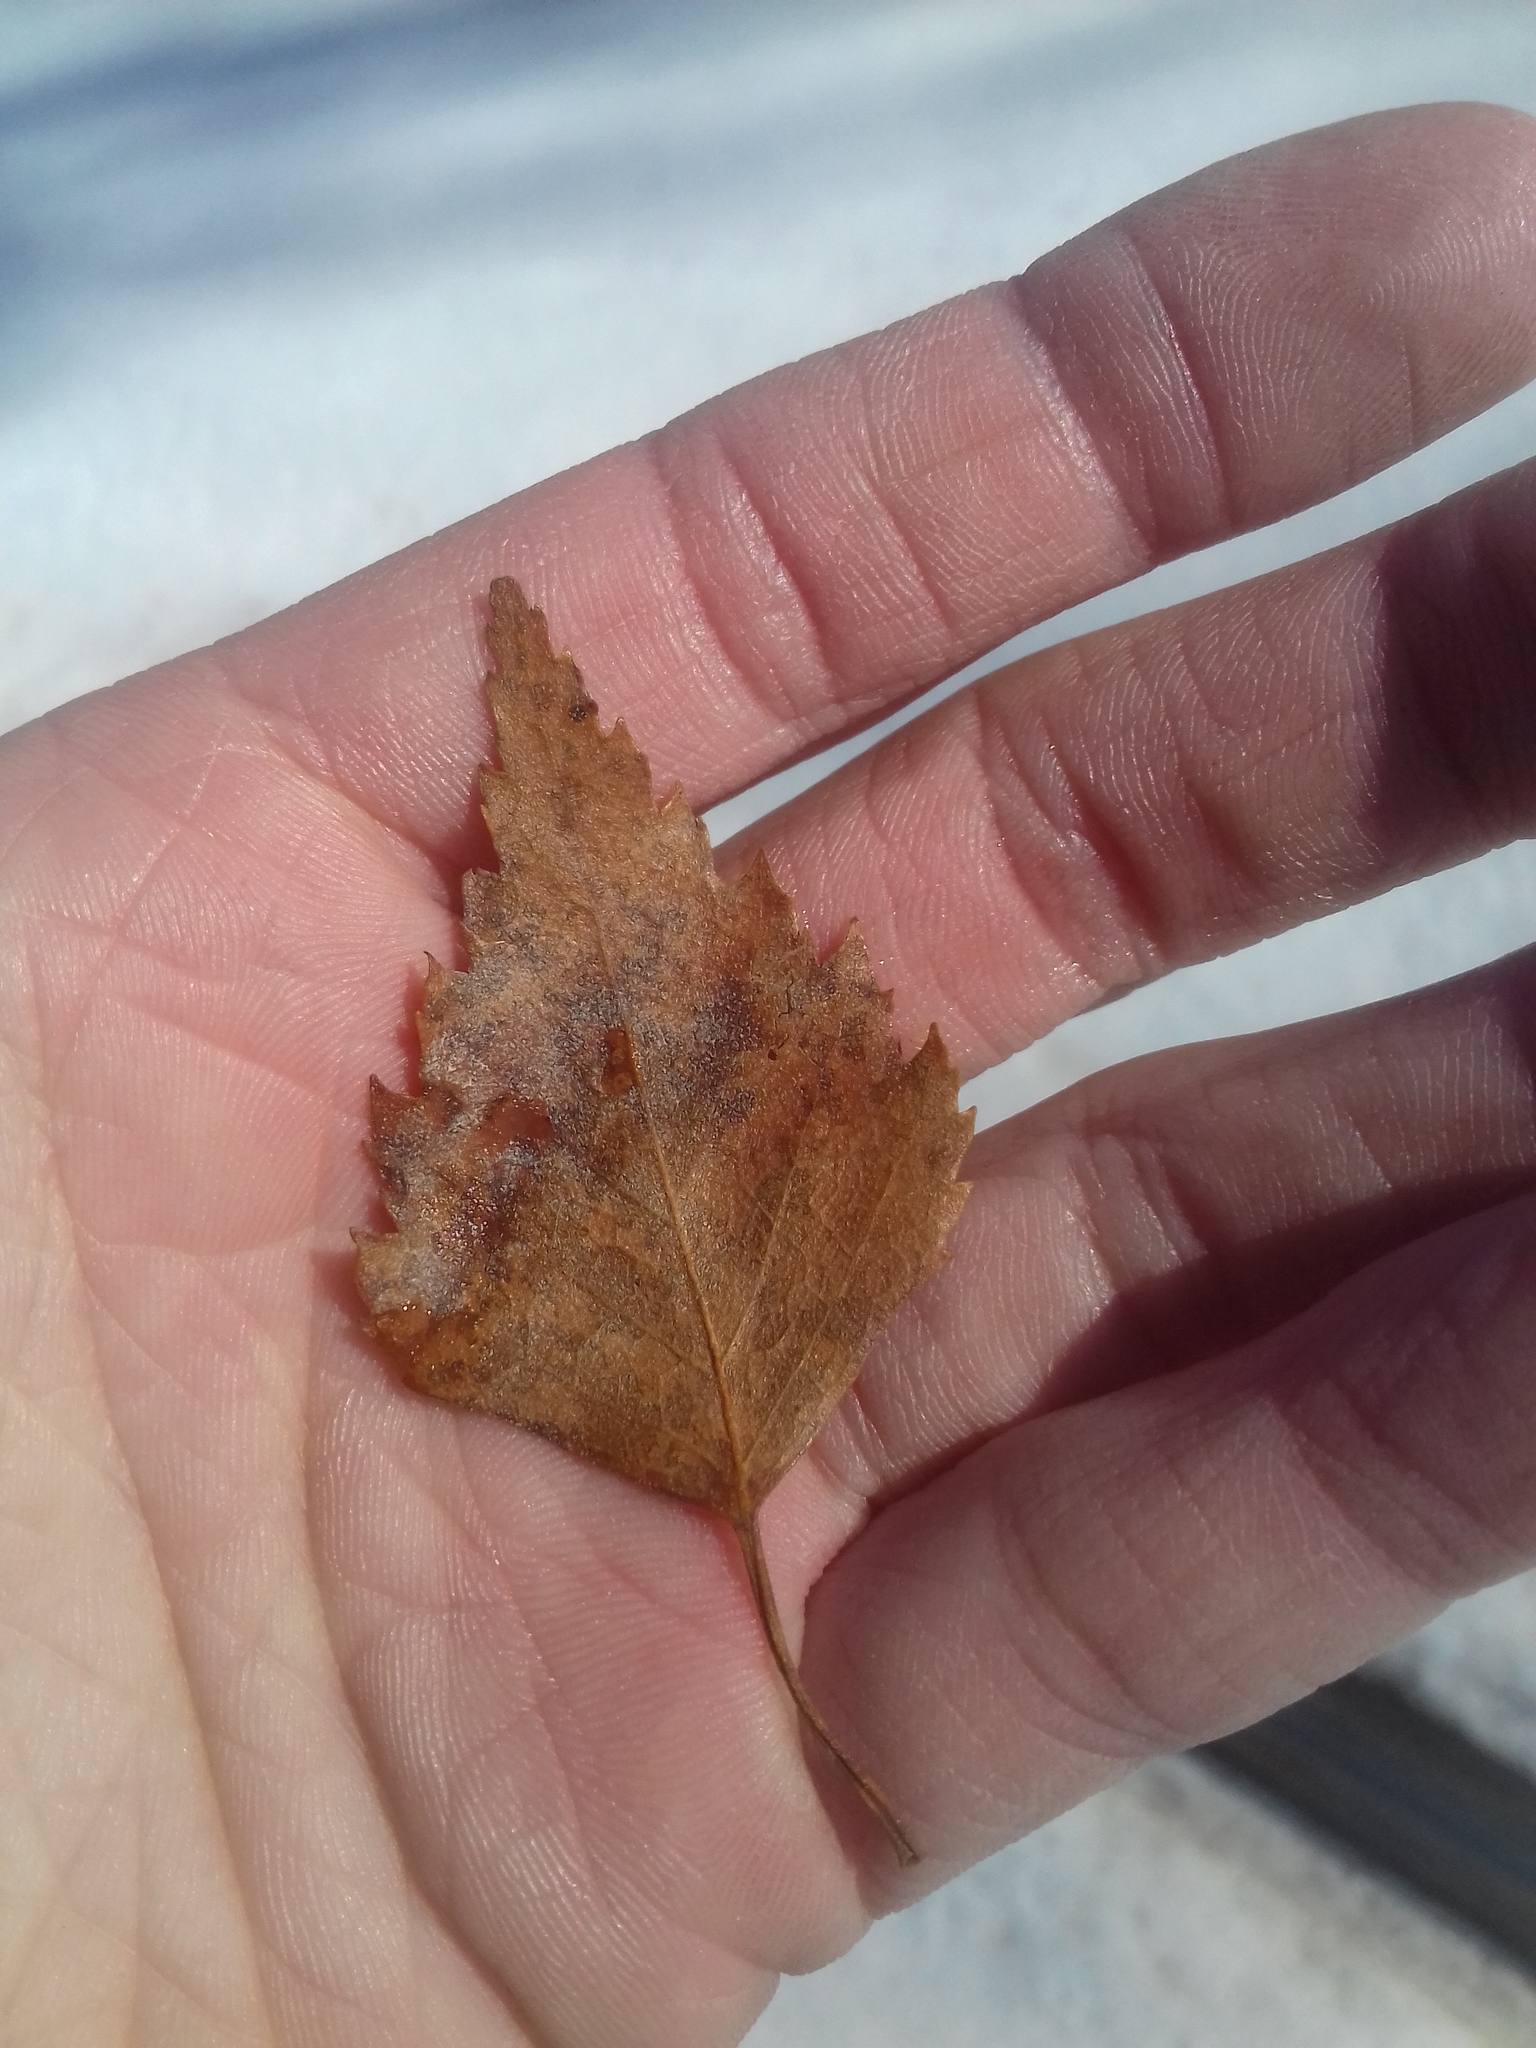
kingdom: Plantae
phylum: Tracheophyta
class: Magnoliopsida
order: Fagales
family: Betulaceae
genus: Betula
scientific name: Betula pendula
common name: Silver birch
